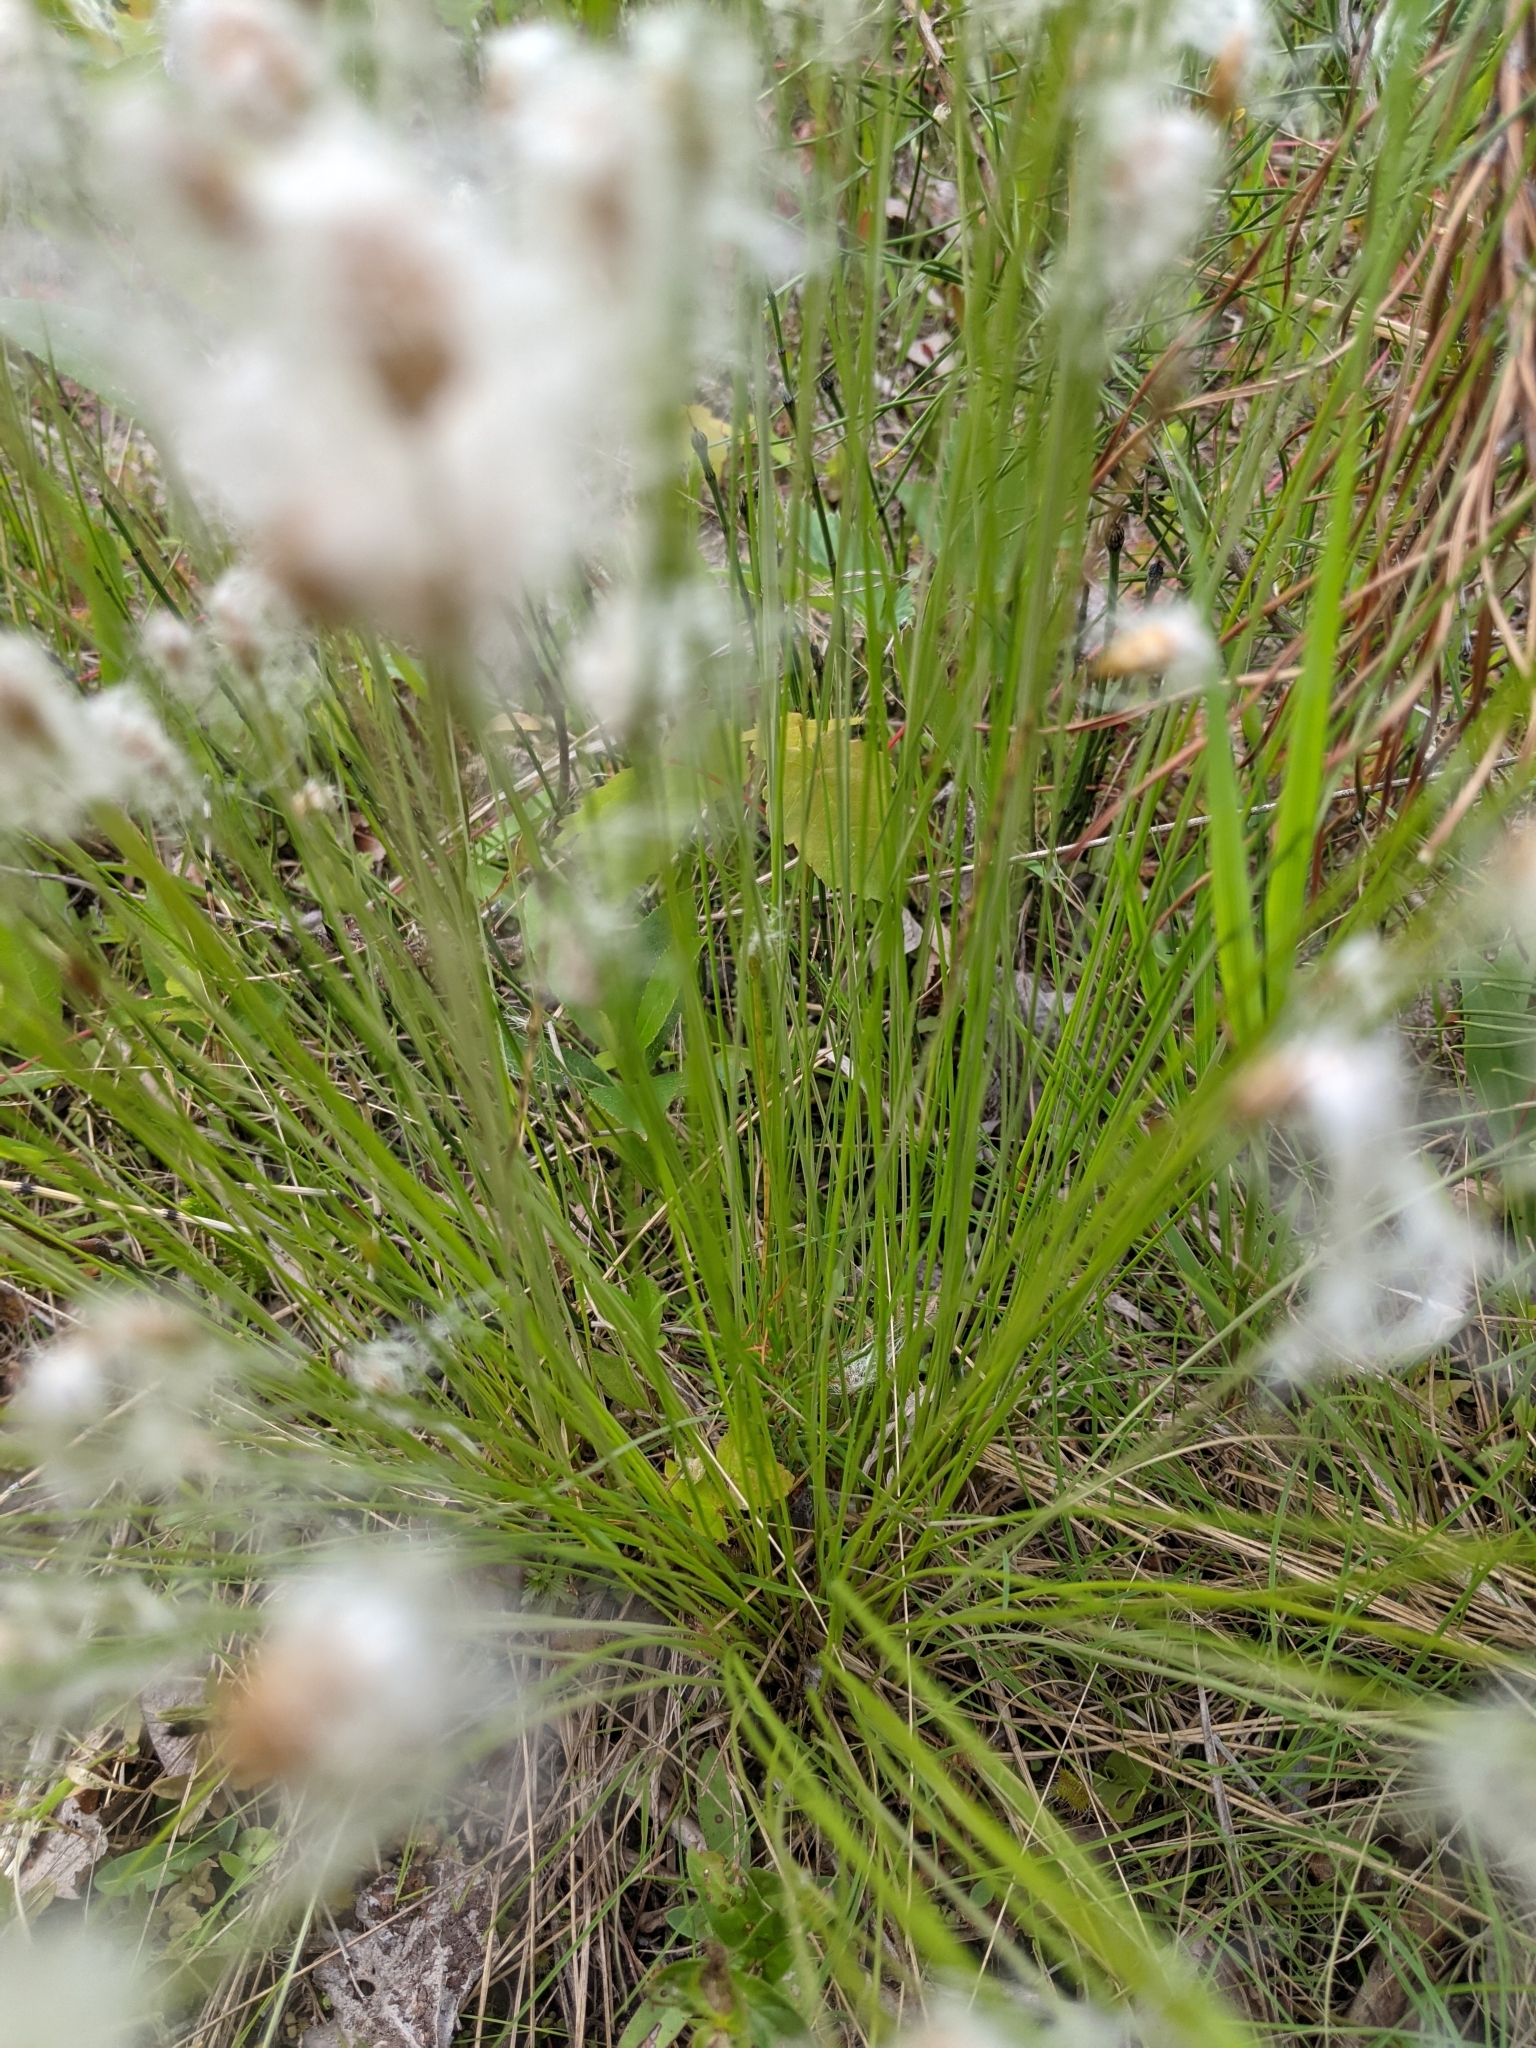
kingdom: Plantae
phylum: Tracheophyta
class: Liliopsida
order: Poales
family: Cyperaceae
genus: Trichophorum
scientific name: Trichophorum alpinum
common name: Alpine bulrush
